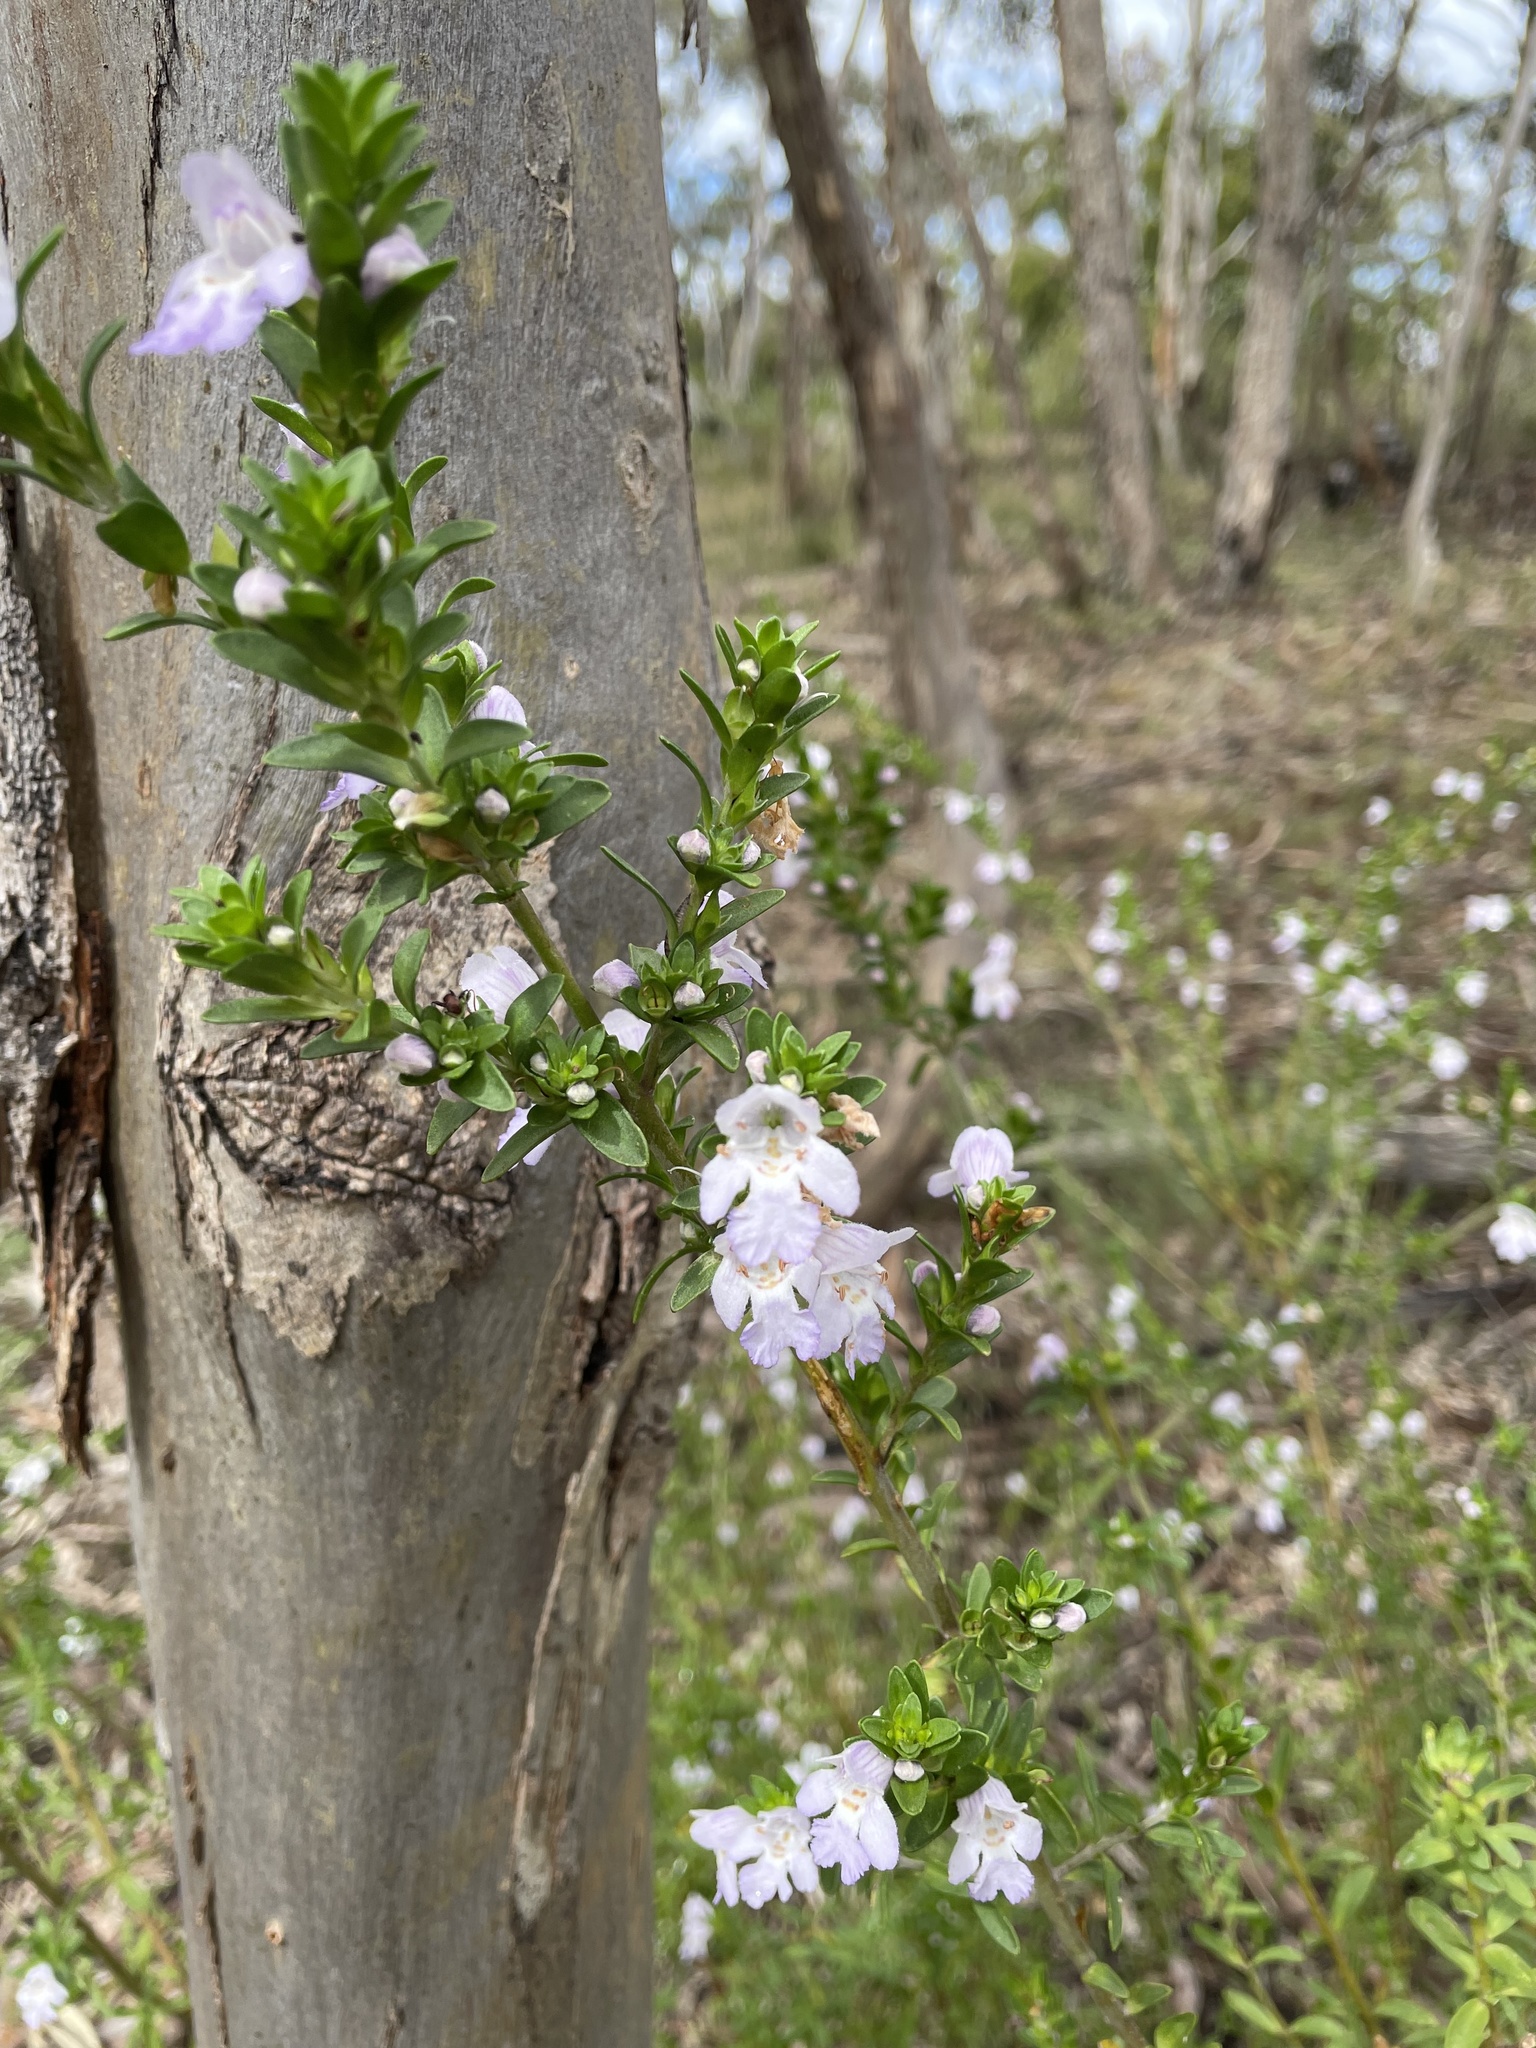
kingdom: Plantae
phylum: Tracheophyta
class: Magnoliopsida
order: Lamiales
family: Lamiaceae
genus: Prostanthera
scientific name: Prostanthera behriana
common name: Downy mintbush
